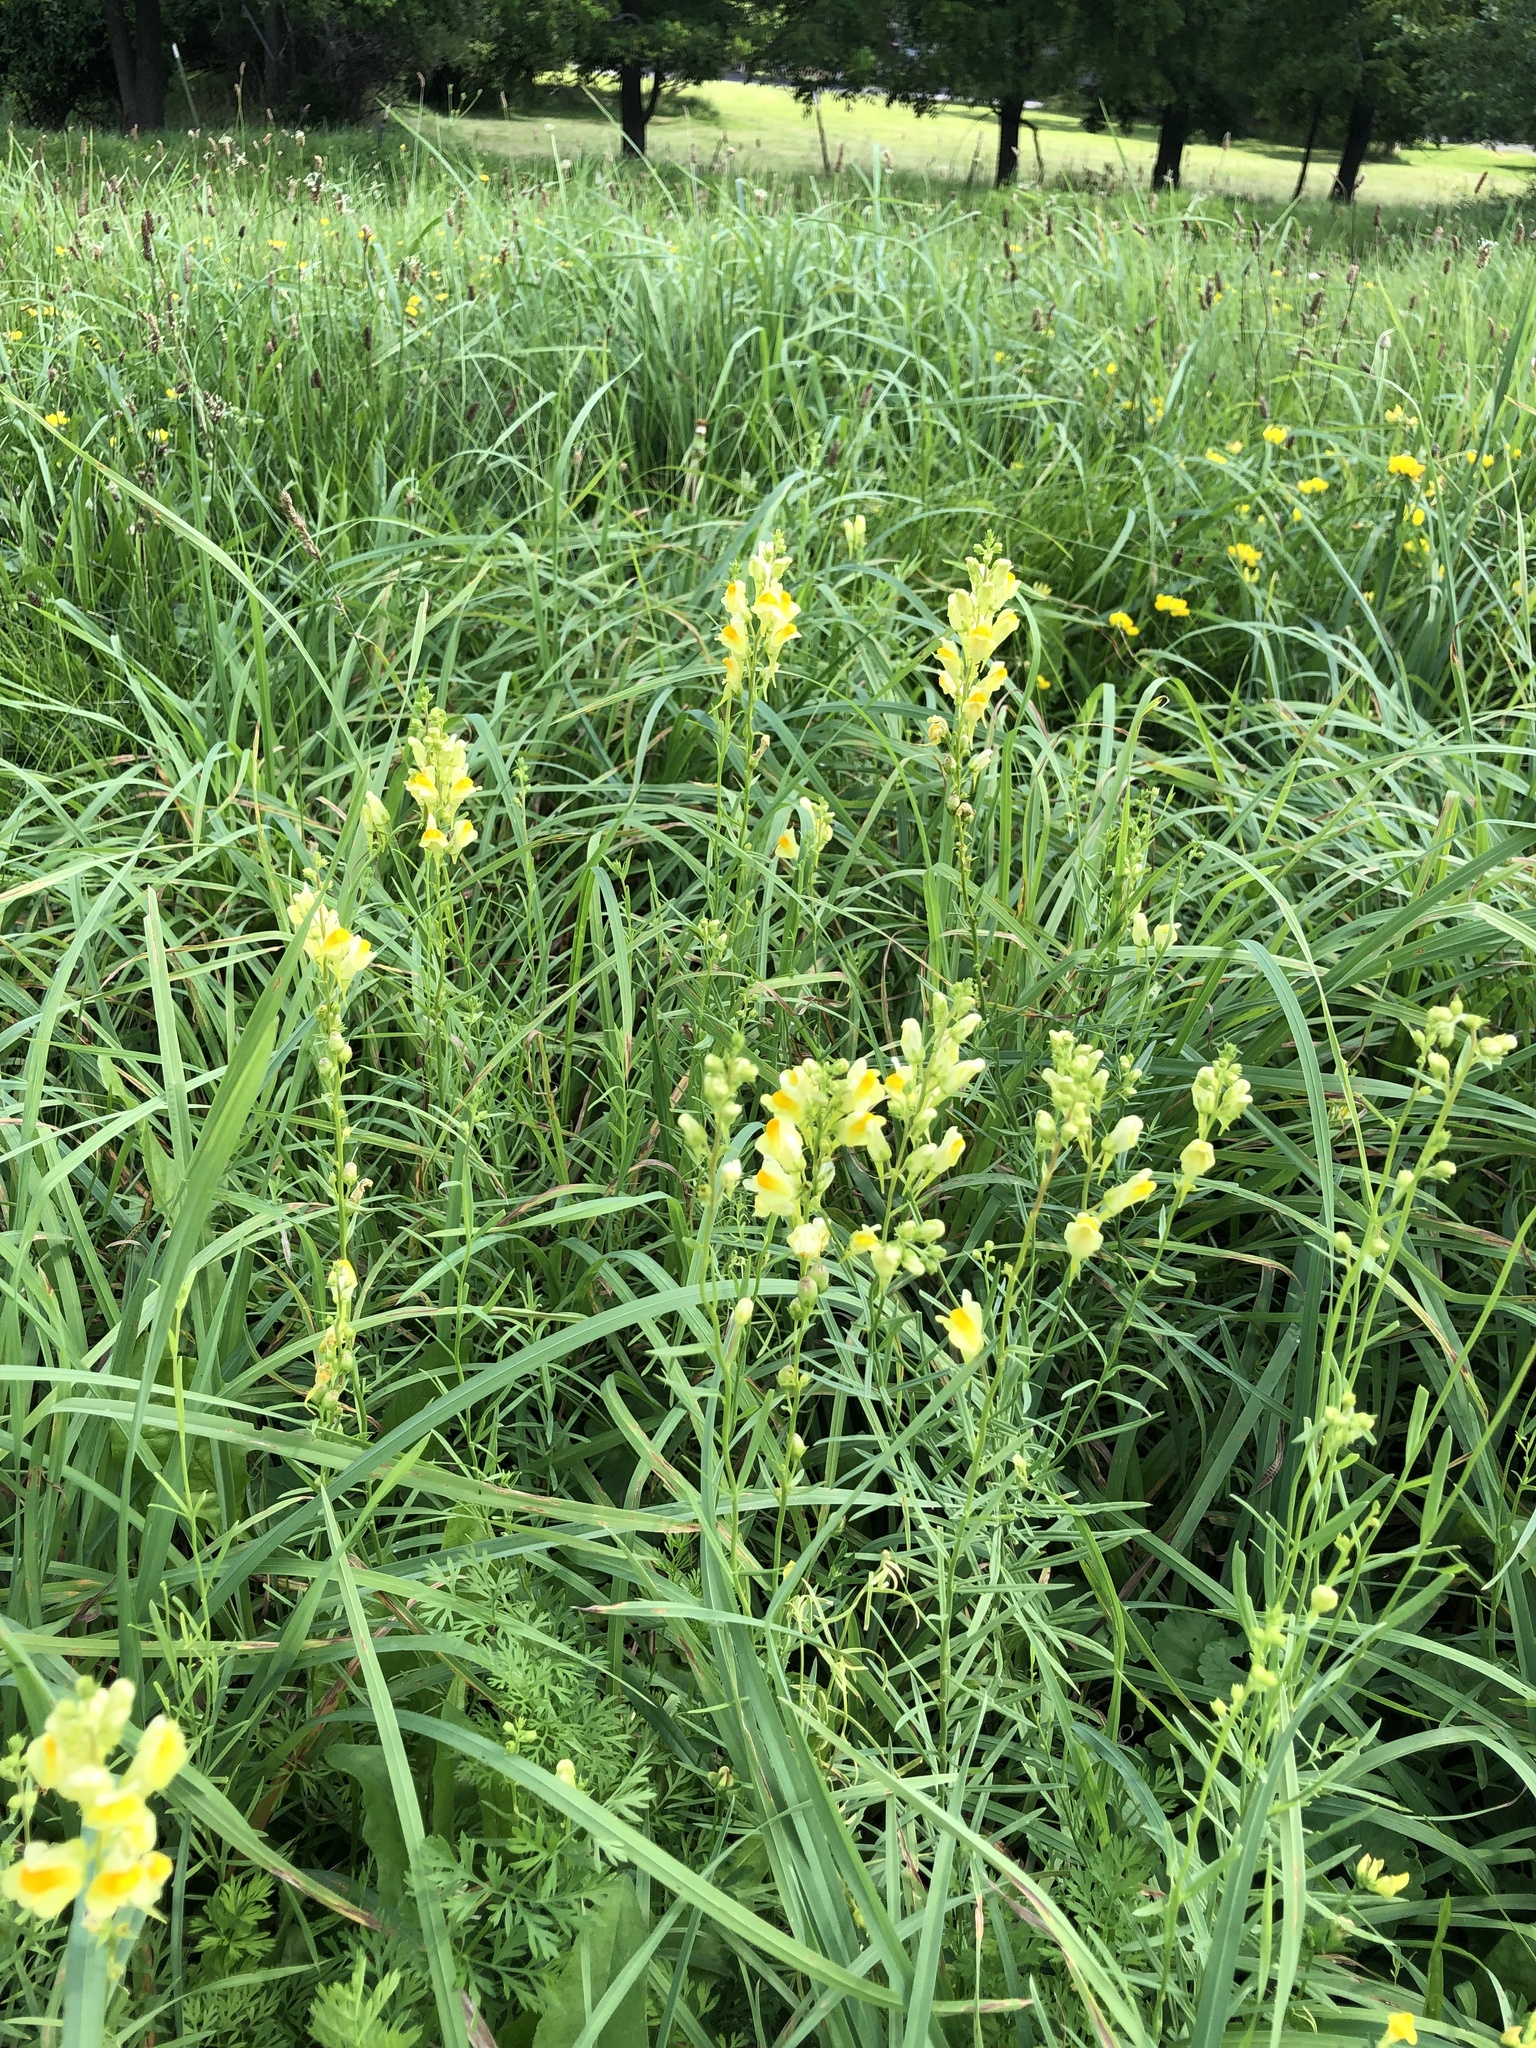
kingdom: Plantae
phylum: Tracheophyta
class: Magnoliopsida
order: Lamiales
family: Plantaginaceae
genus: Linaria
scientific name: Linaria vulgaris
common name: Butter and eggs
